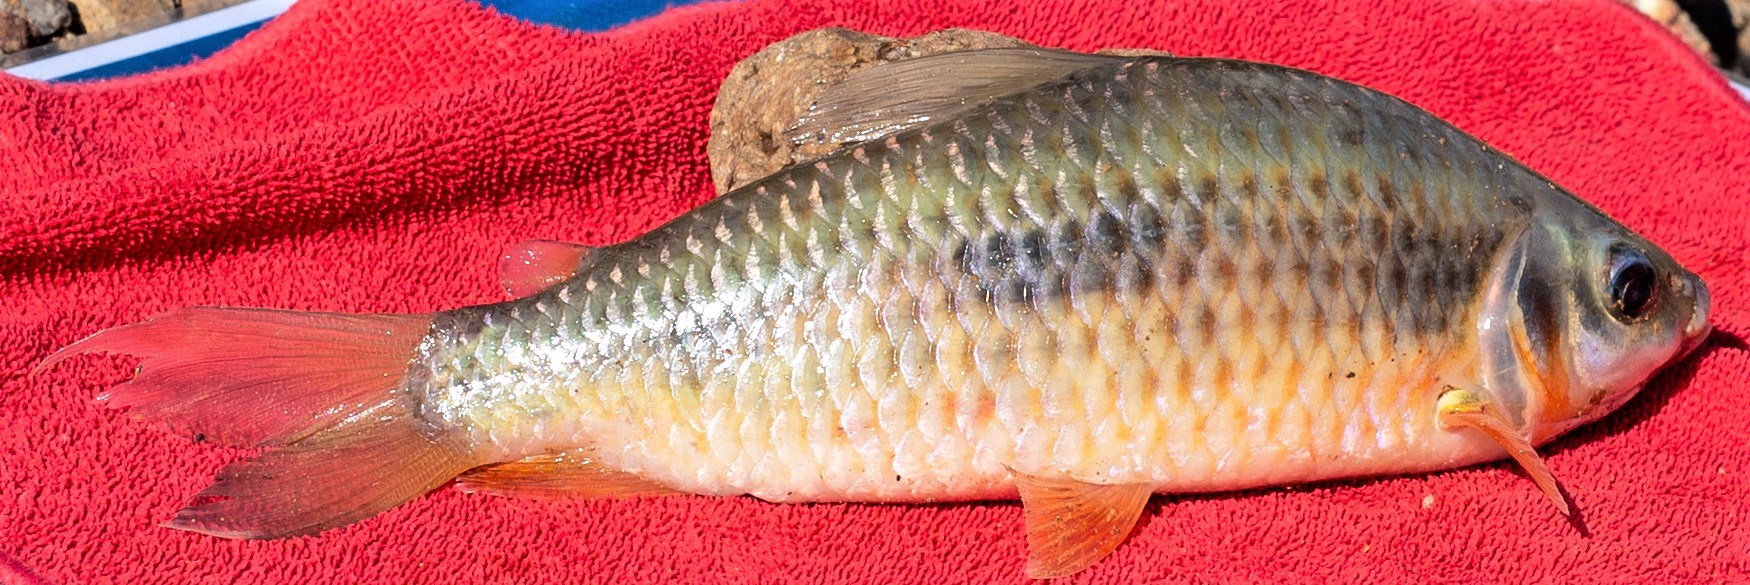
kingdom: Animalia
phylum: Chordata
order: Characiformes
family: Anostomidae
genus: Leporinus
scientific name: Leporinus gossei
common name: Gosse's leporinus
